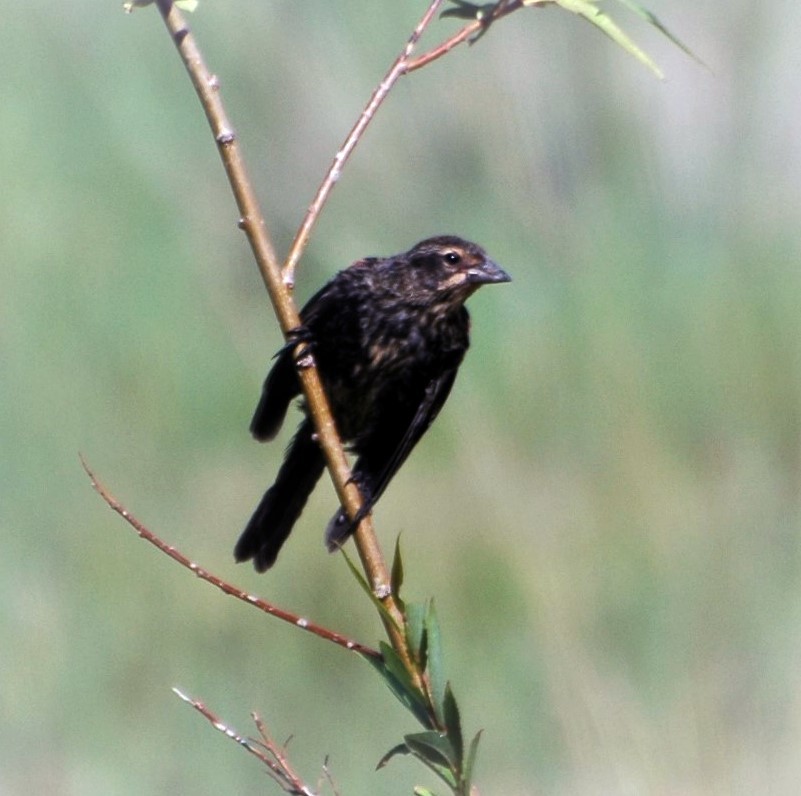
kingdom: Animalia
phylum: Chordata
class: Aves
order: Passeriformes
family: Icteridae
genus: Agelaius
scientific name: Agelaius phoeniceus
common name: Red-winged blackbird
